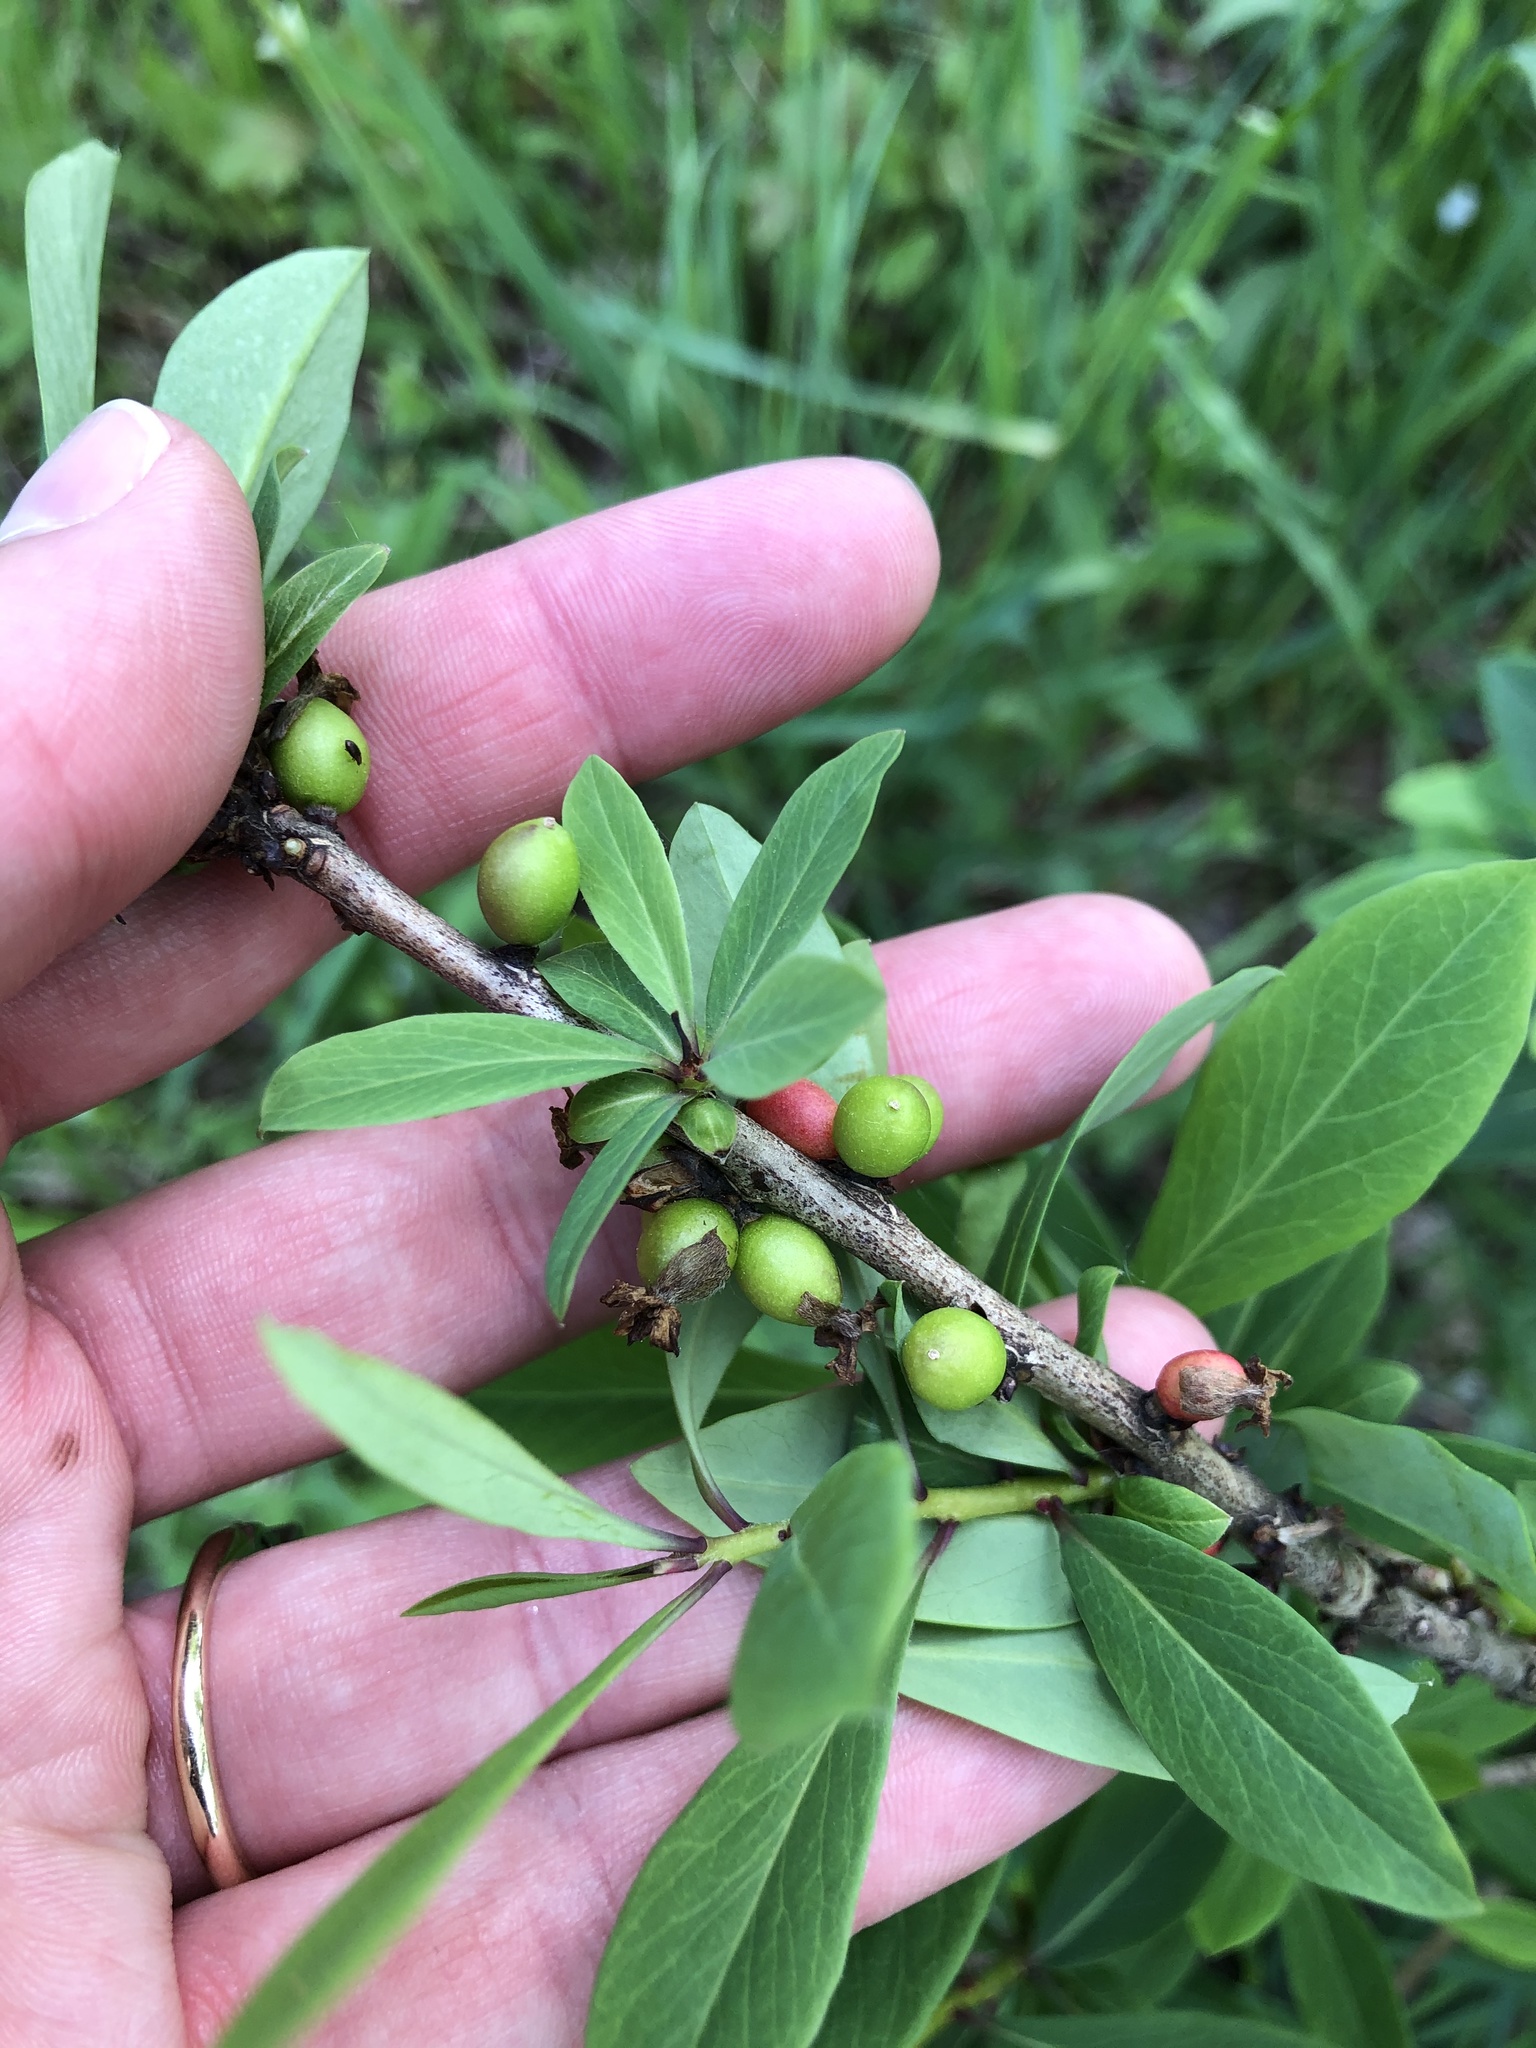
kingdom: Plantae
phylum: Tracheophyta
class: Magnoliopsida
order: Malvales
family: Thymelaeaceae
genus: Daphne
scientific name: Daphne mezereum
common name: Mezereon
